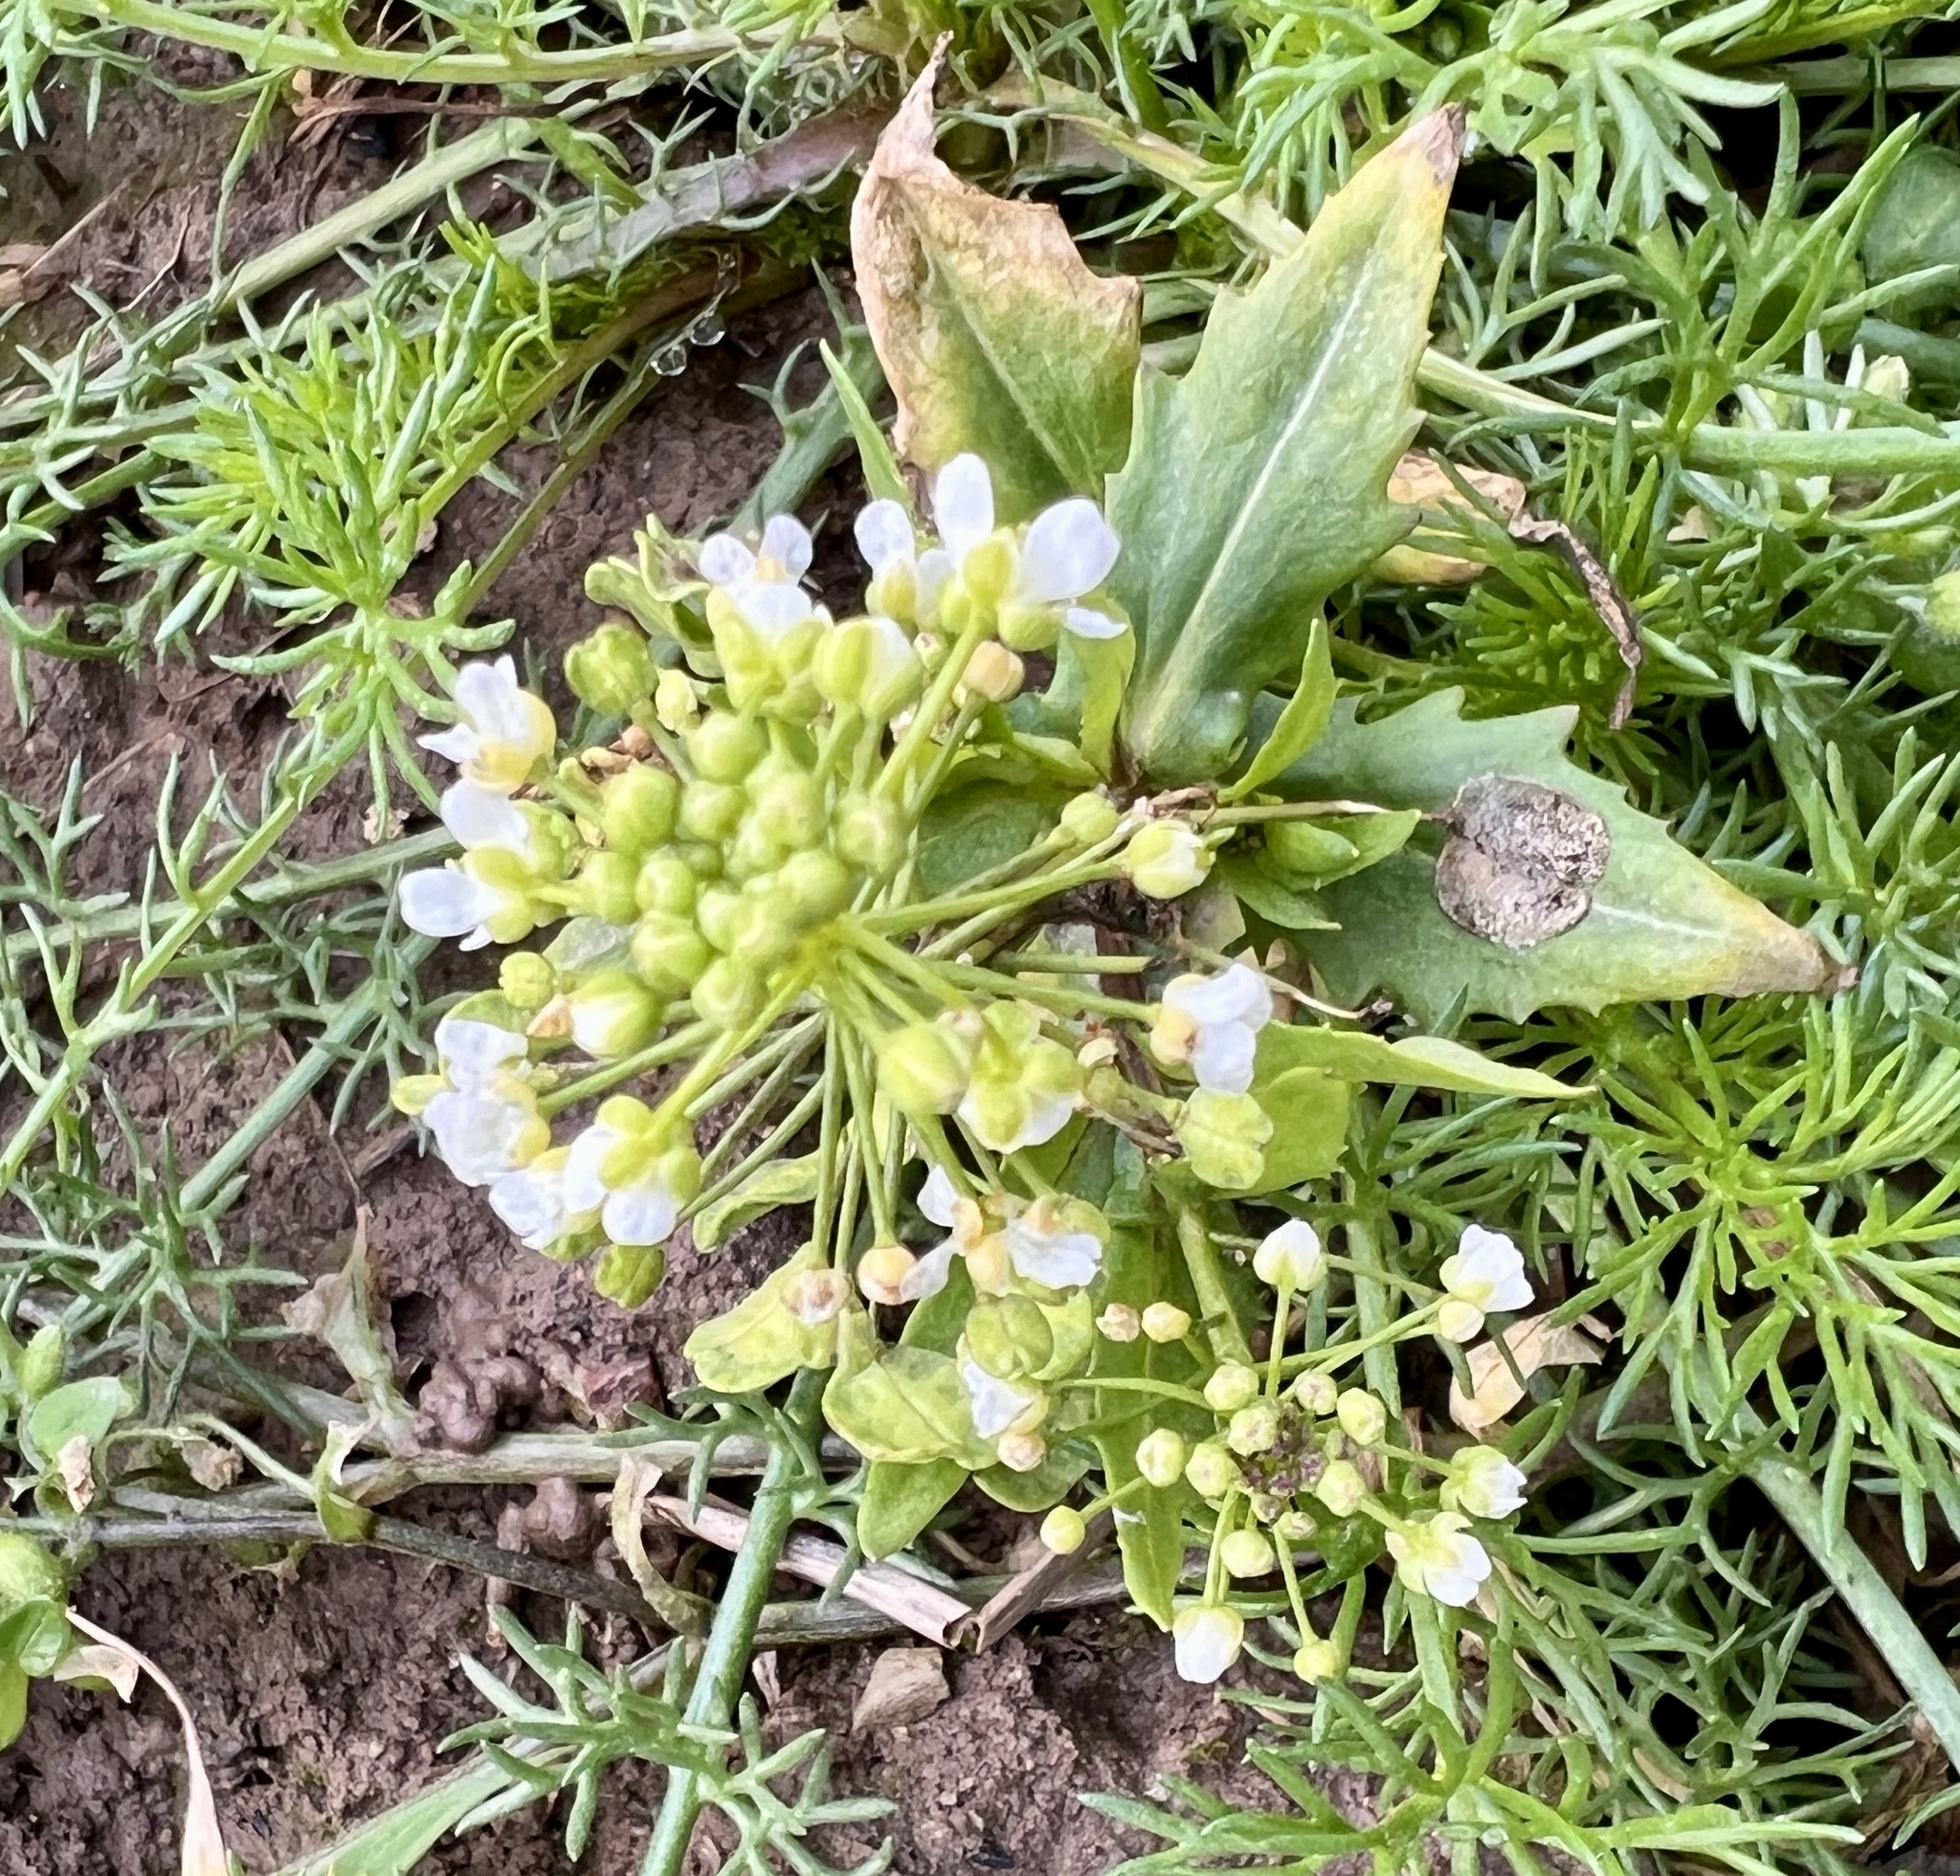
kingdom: Plantae
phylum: Tracheophyta
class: Magnoliopsida
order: Brassicales
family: Brassicaceae
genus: Thlaspi
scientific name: Thlaspi arvense
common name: Field pennycress
